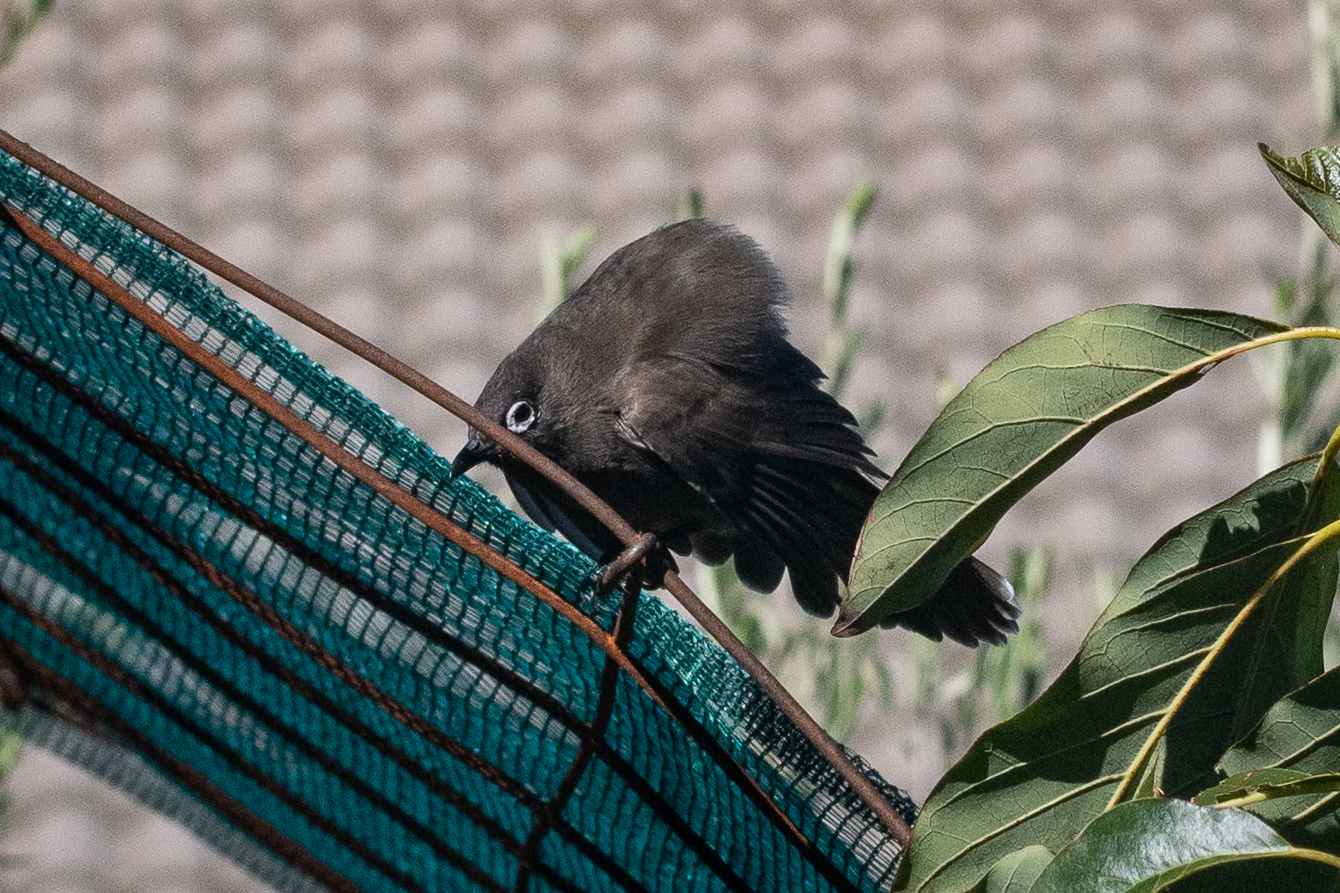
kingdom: Animalia
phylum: Chordata
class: Aves
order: Passeriformes
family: Pycnonotidae
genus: Pycnonotus
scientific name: Pycnonotus capensis
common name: Cape bulbul
